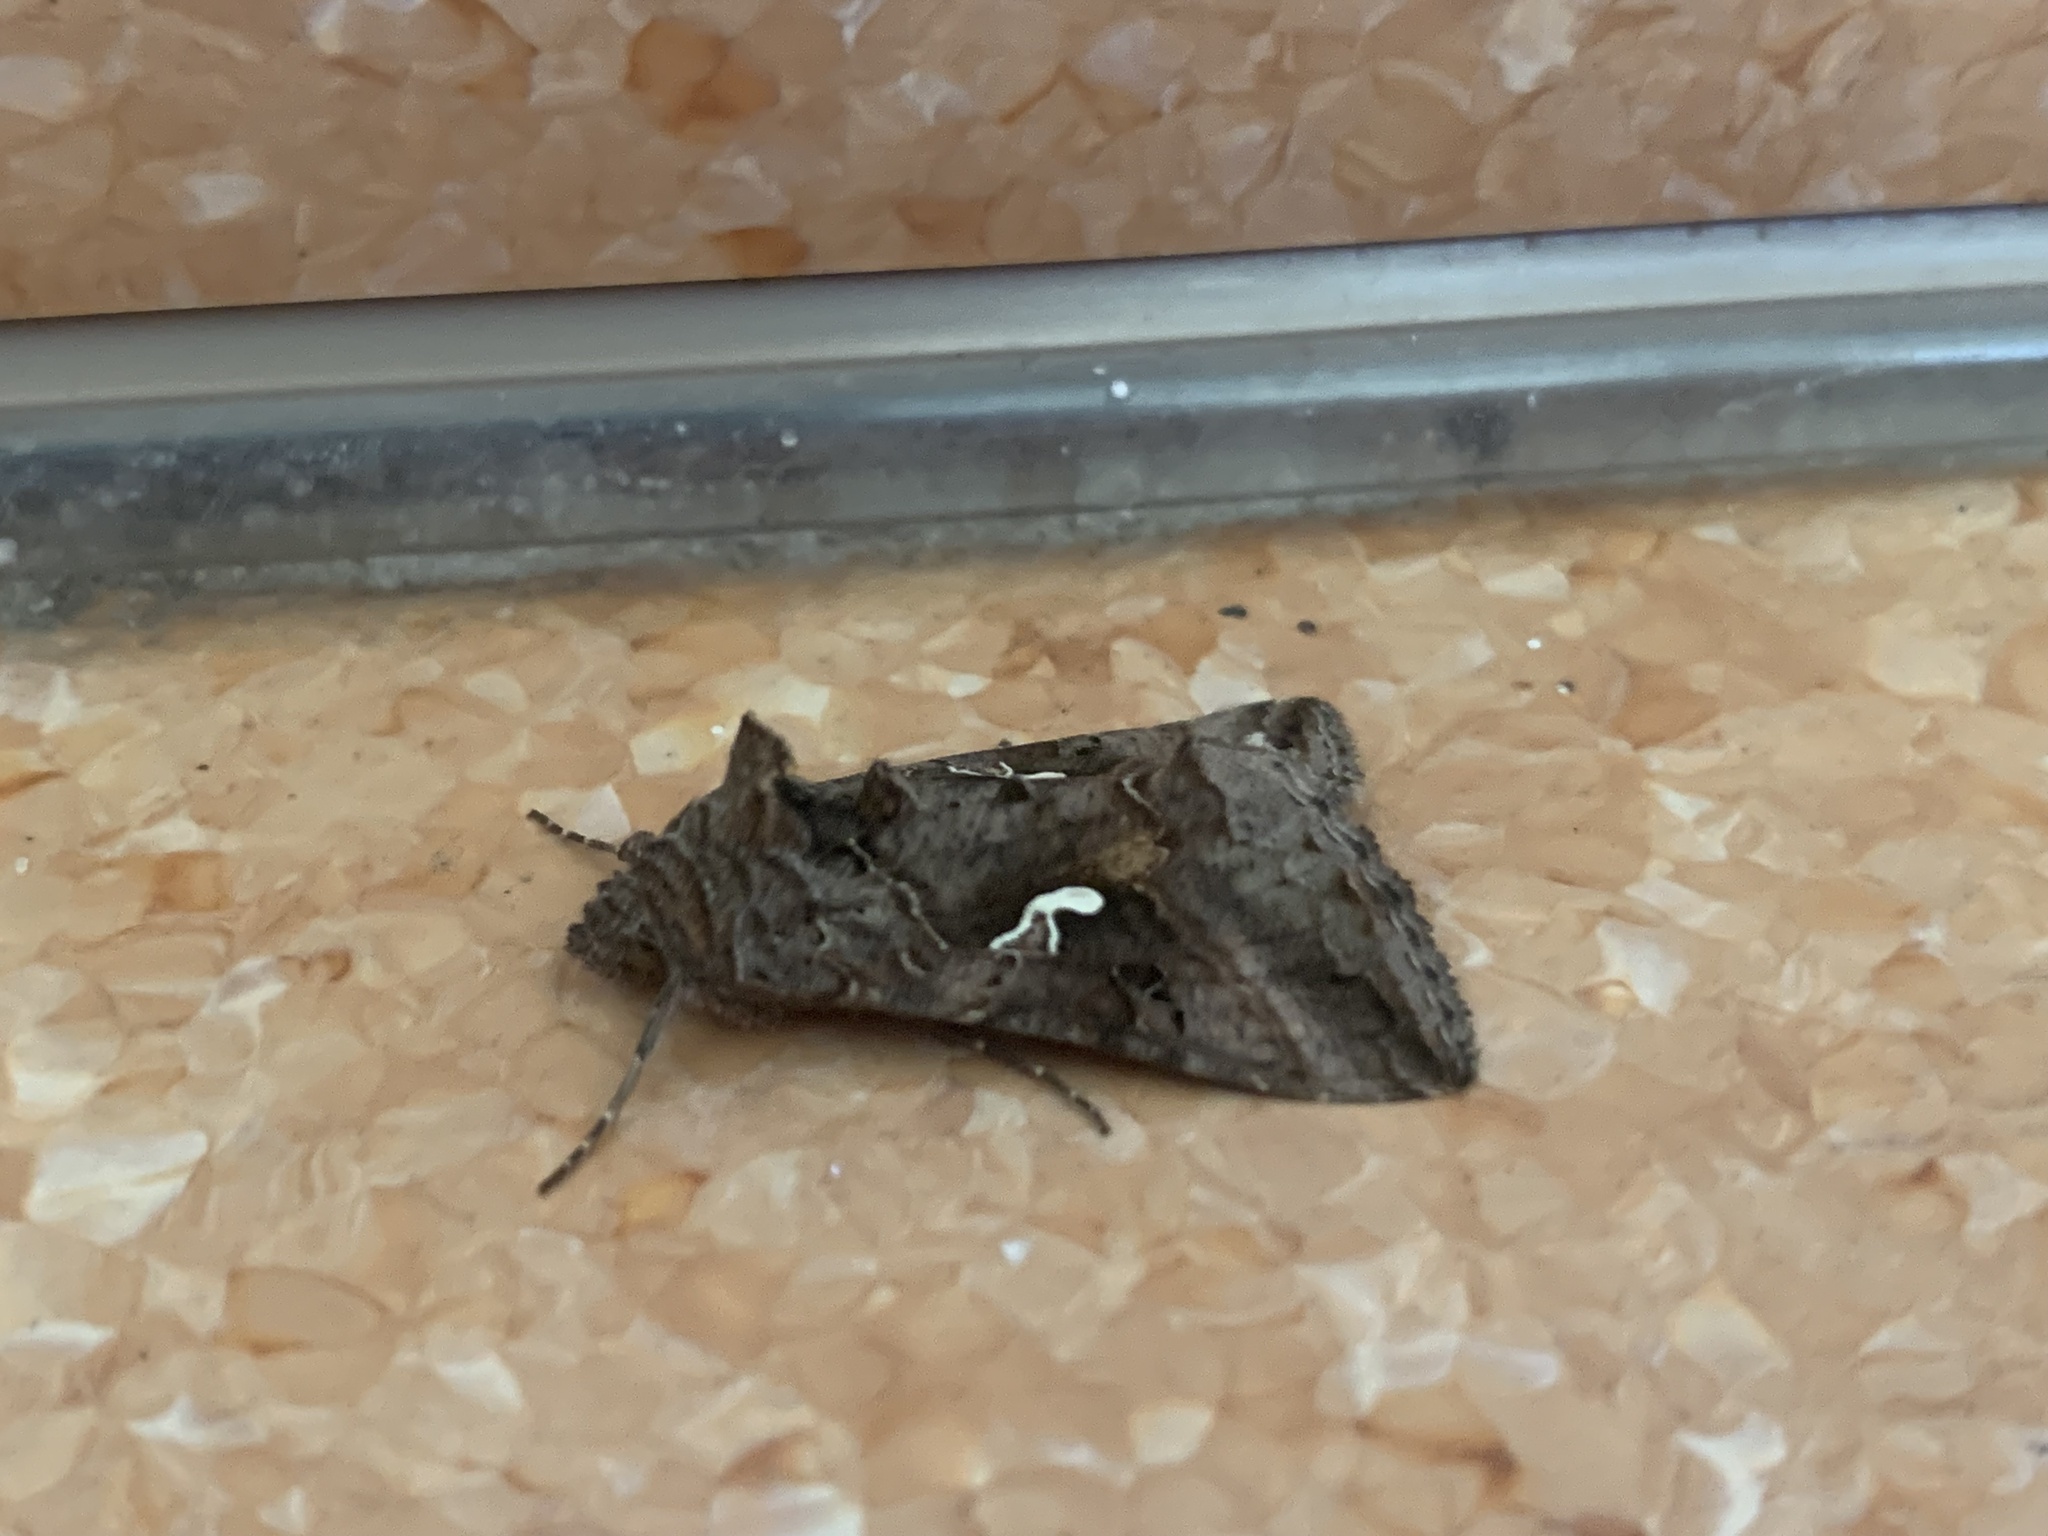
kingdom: Animalia
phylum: Arthropoda
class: Insecta
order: Lepidoptera
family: Noctuidae
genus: Autographa
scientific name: Autographa gamma
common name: Silver y
